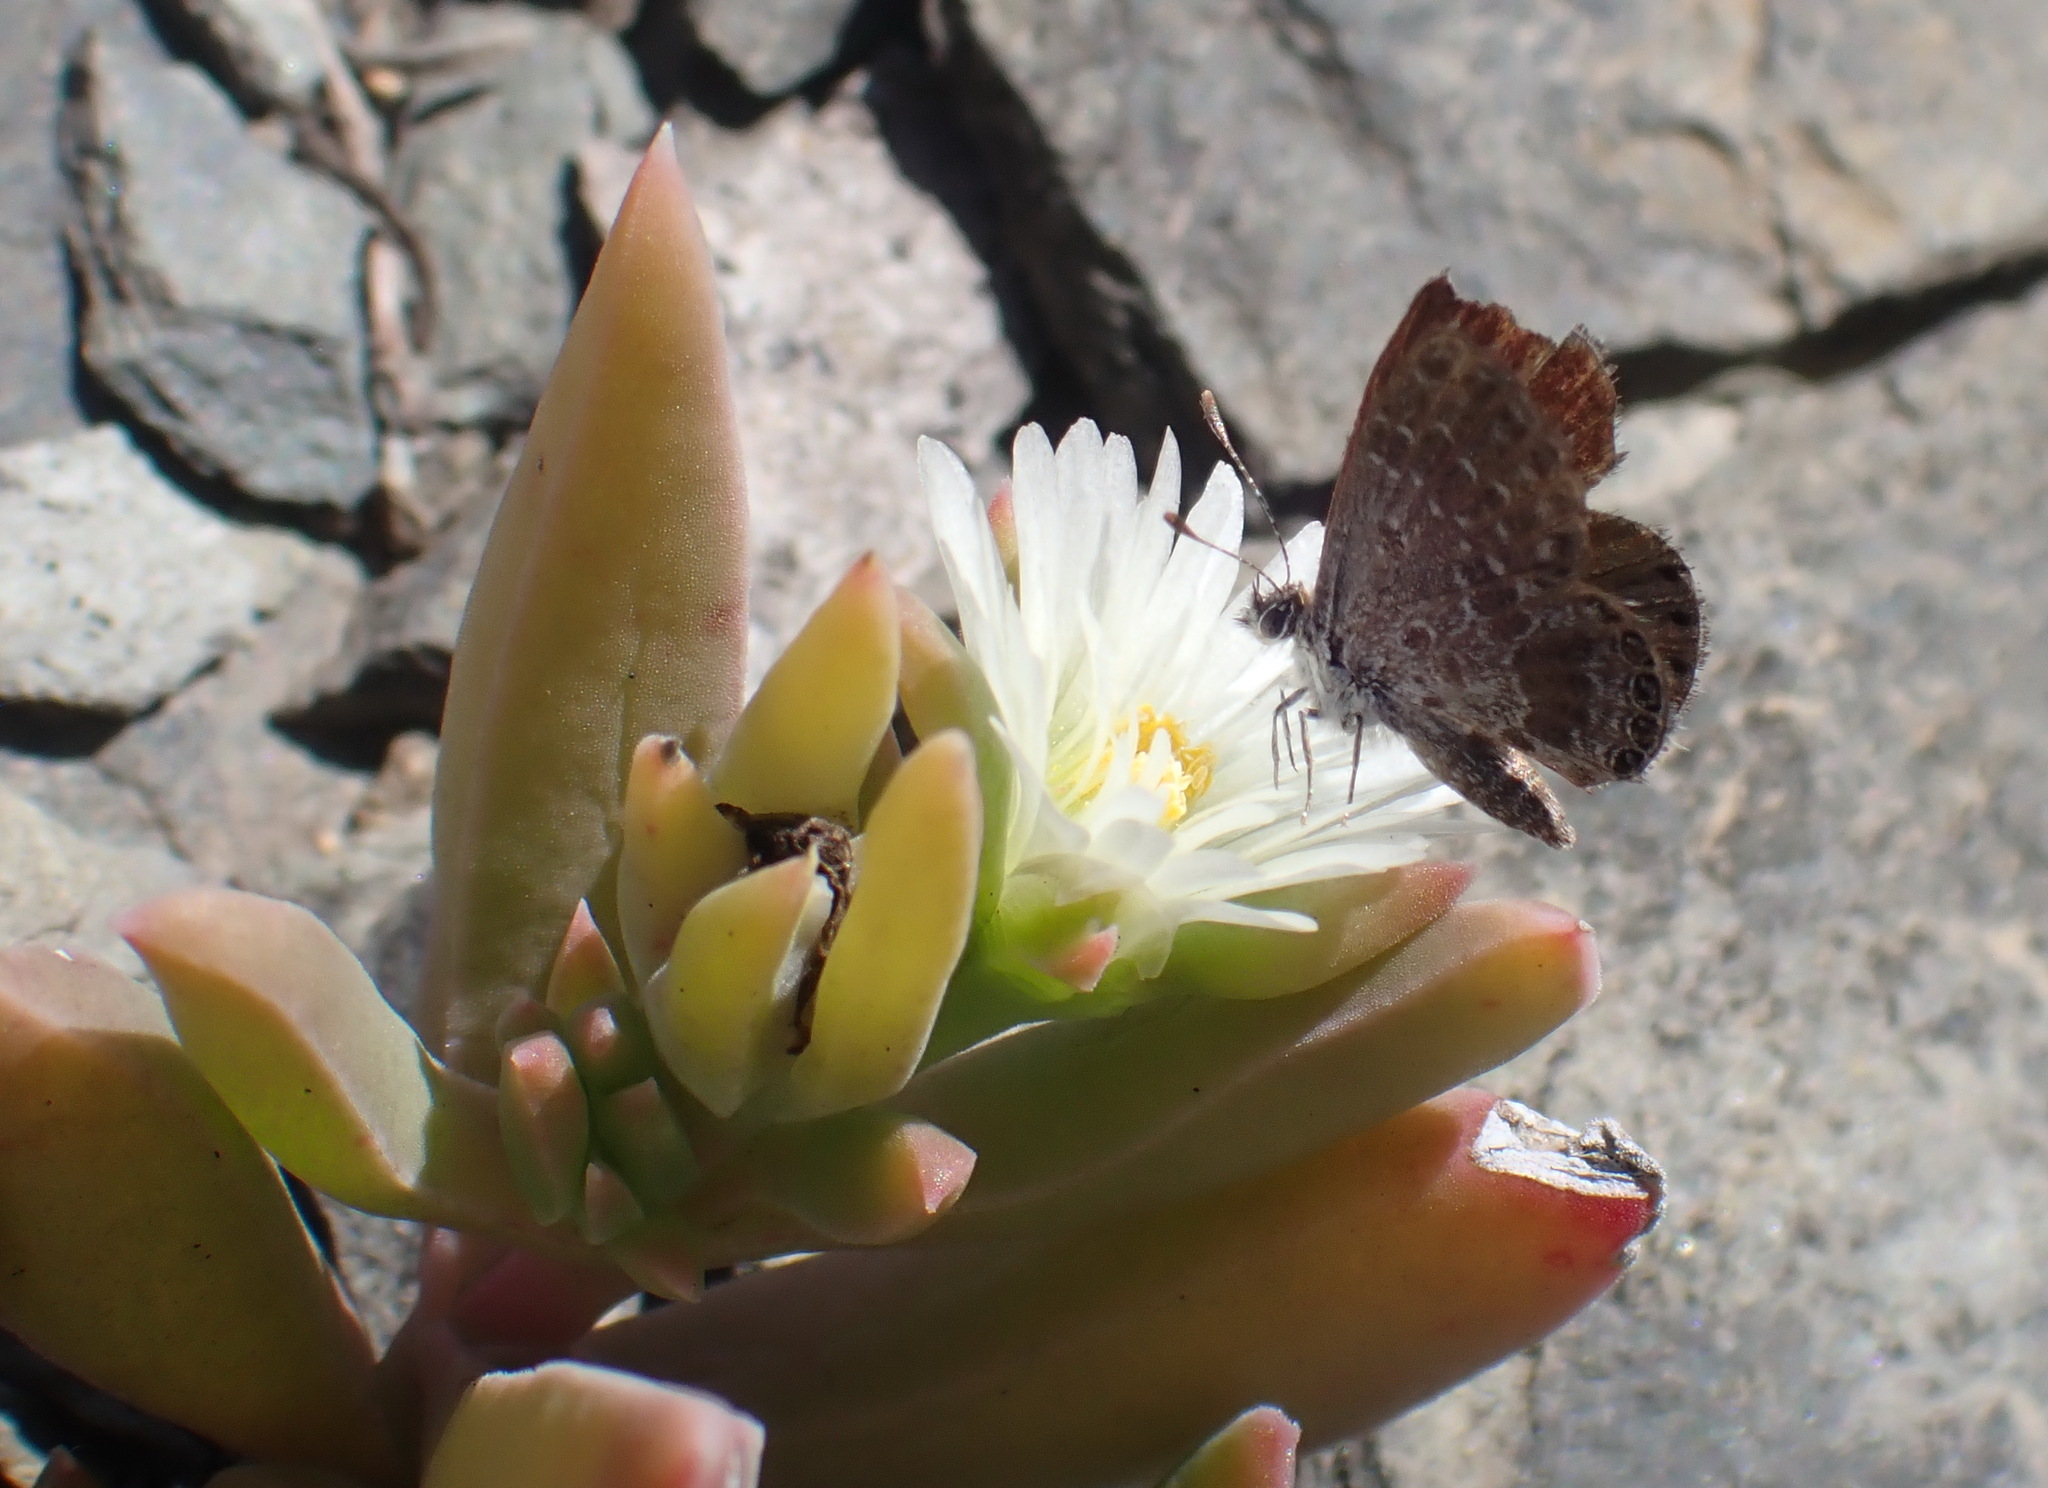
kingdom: Plantae
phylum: Tracheophyta
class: Magnoliopsida
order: Caryophyllales
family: Aizoaceae
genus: Delosperma
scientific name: Delosperma litorale
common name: Seaside delosperma
